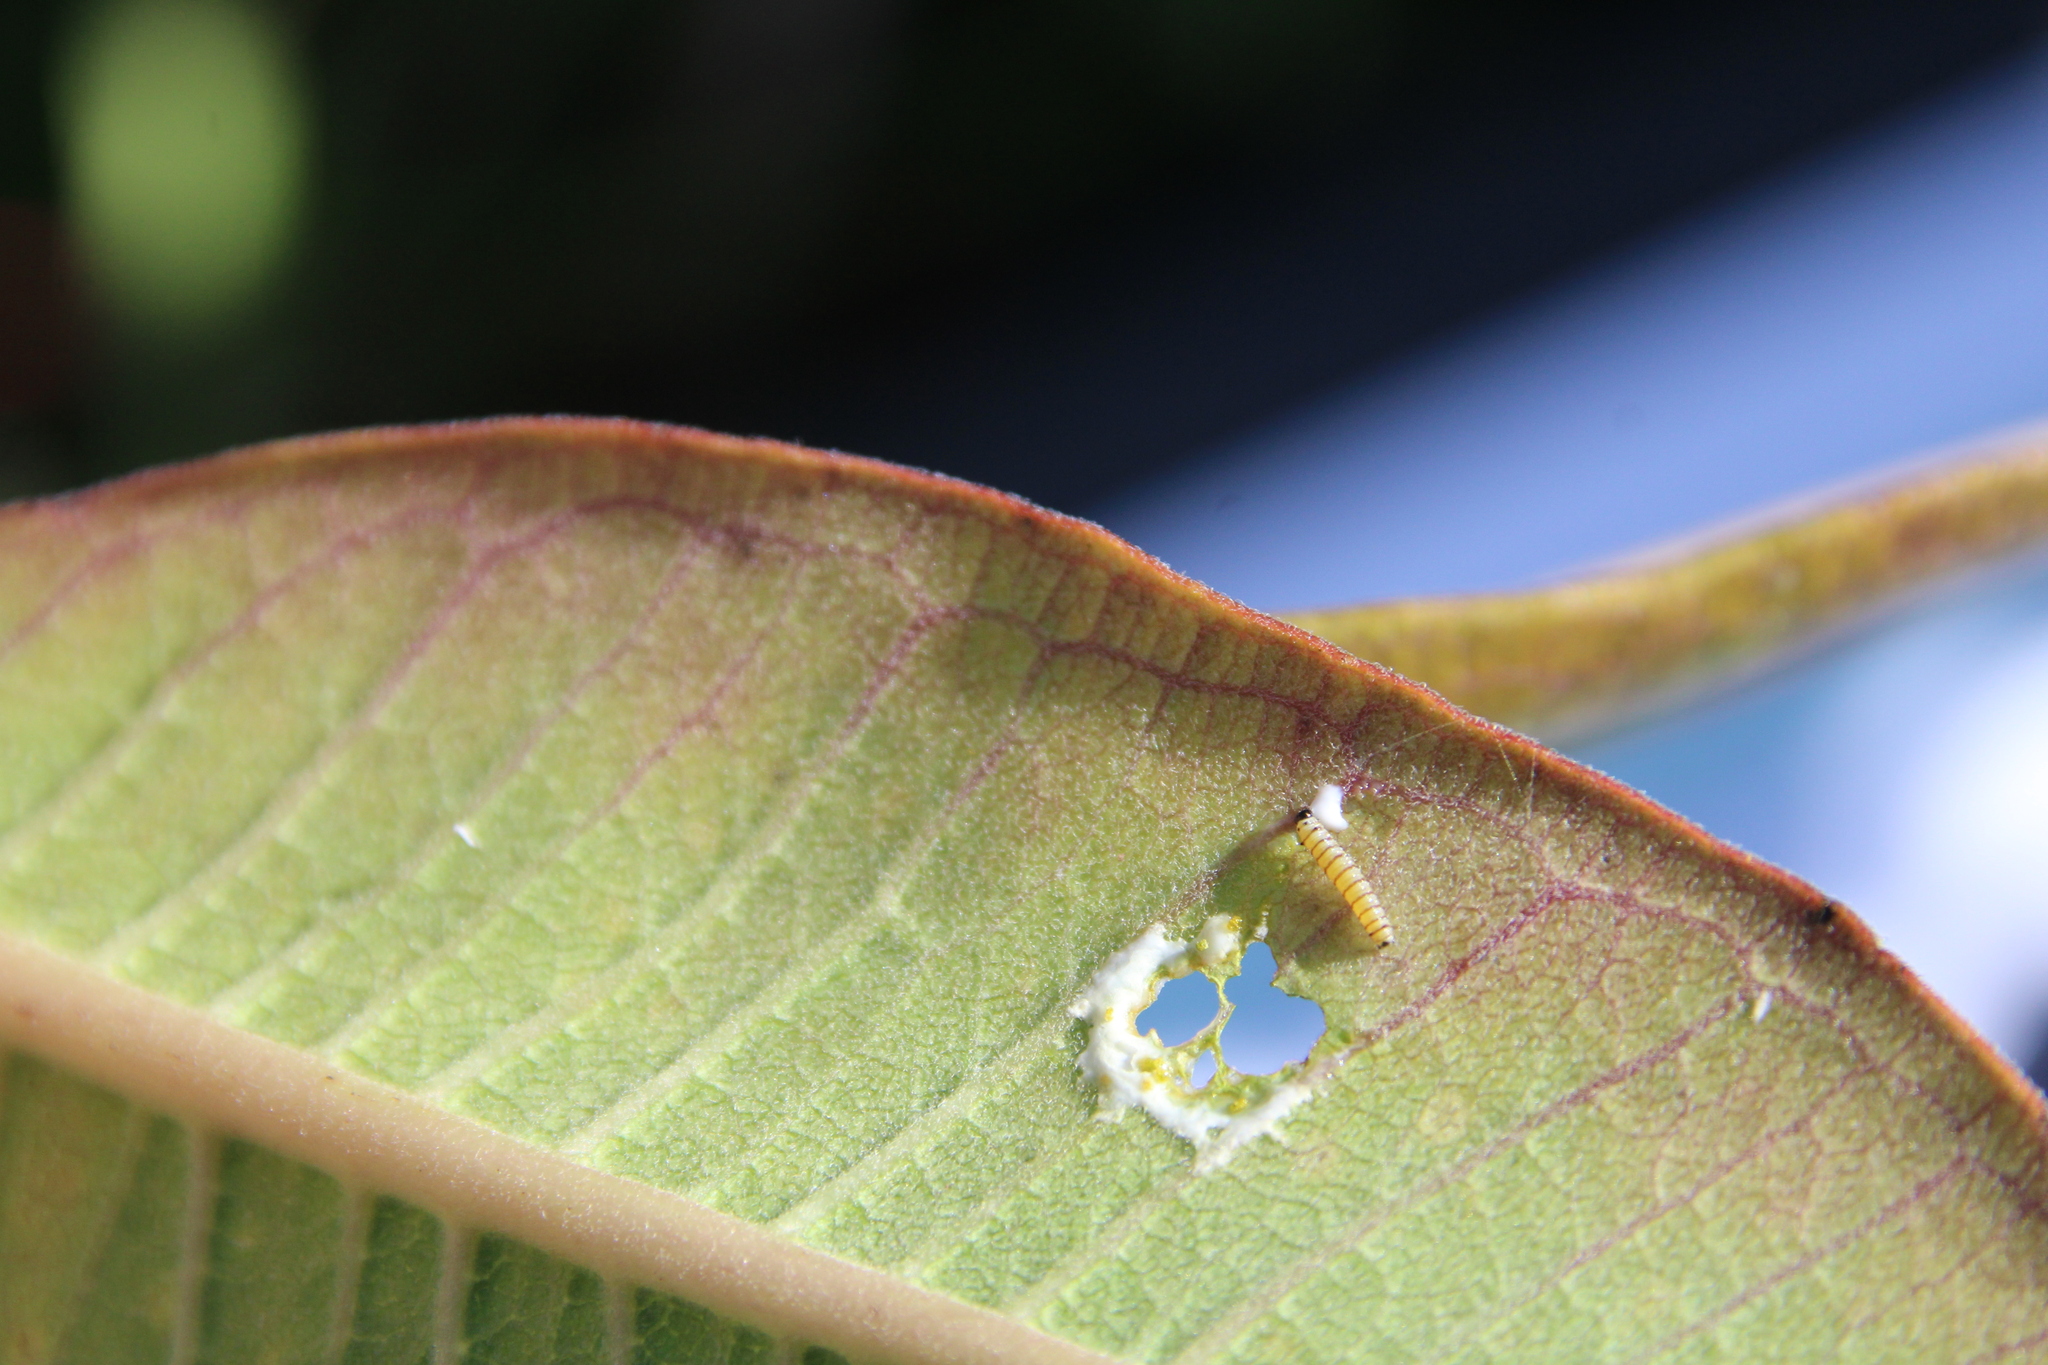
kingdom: Animalia
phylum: Arthropoda
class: Insecta
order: Lepidoptera
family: Nymphalidae
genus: Danaus
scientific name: Danaus plexippus
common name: Monarch
